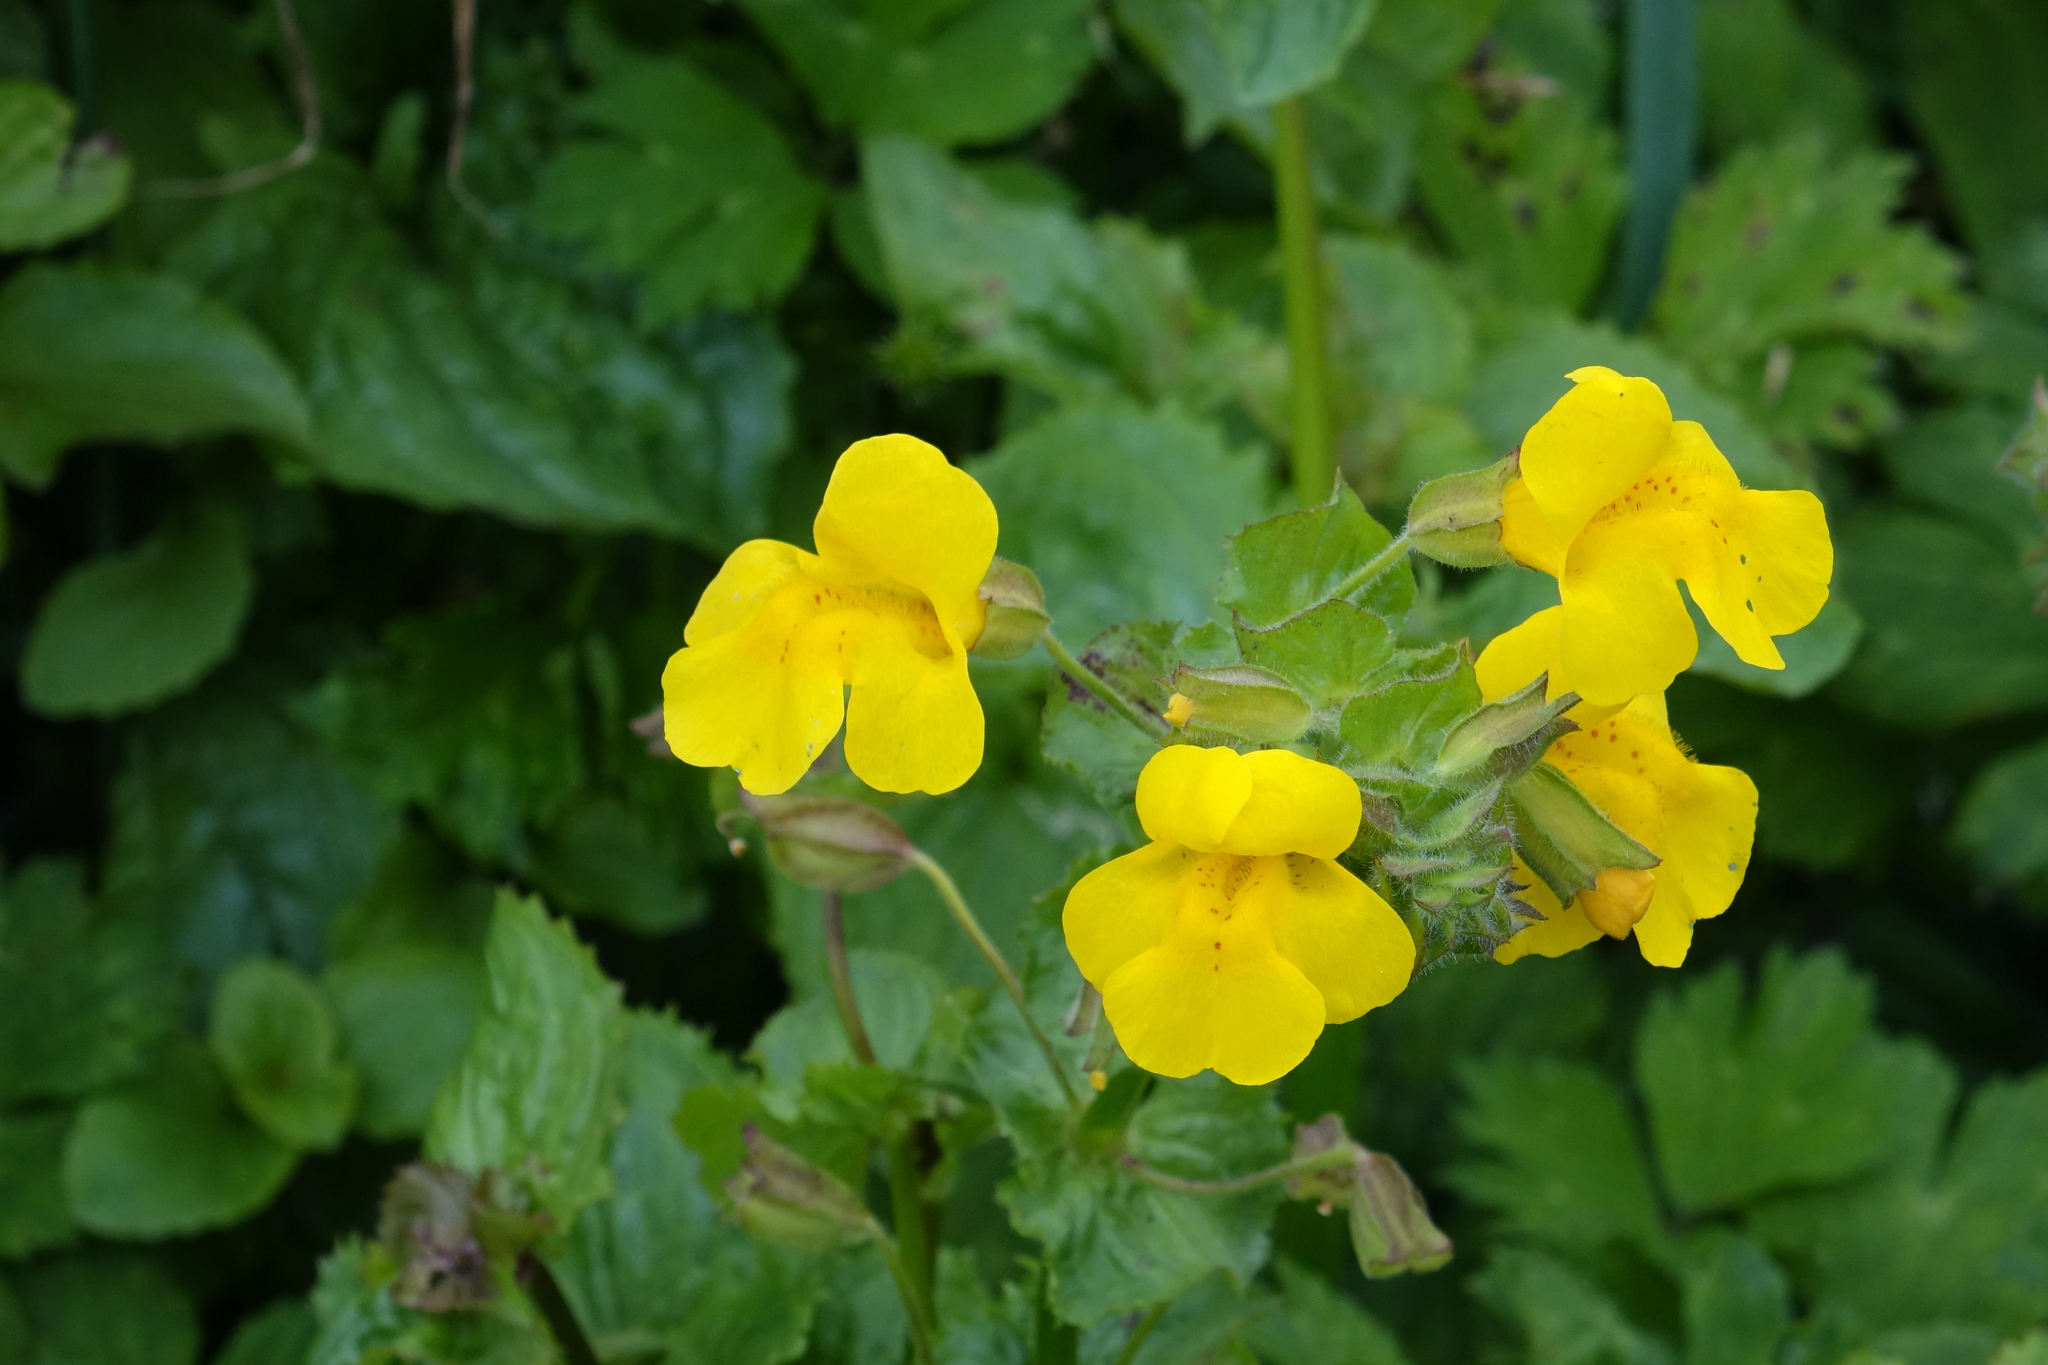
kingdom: Plantae
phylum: Tracheophyta
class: Magnoliopsida
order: Lamiales
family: Phrymaceae
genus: Erythranthe
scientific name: Erythranthe guttata
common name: Monkeyflower
